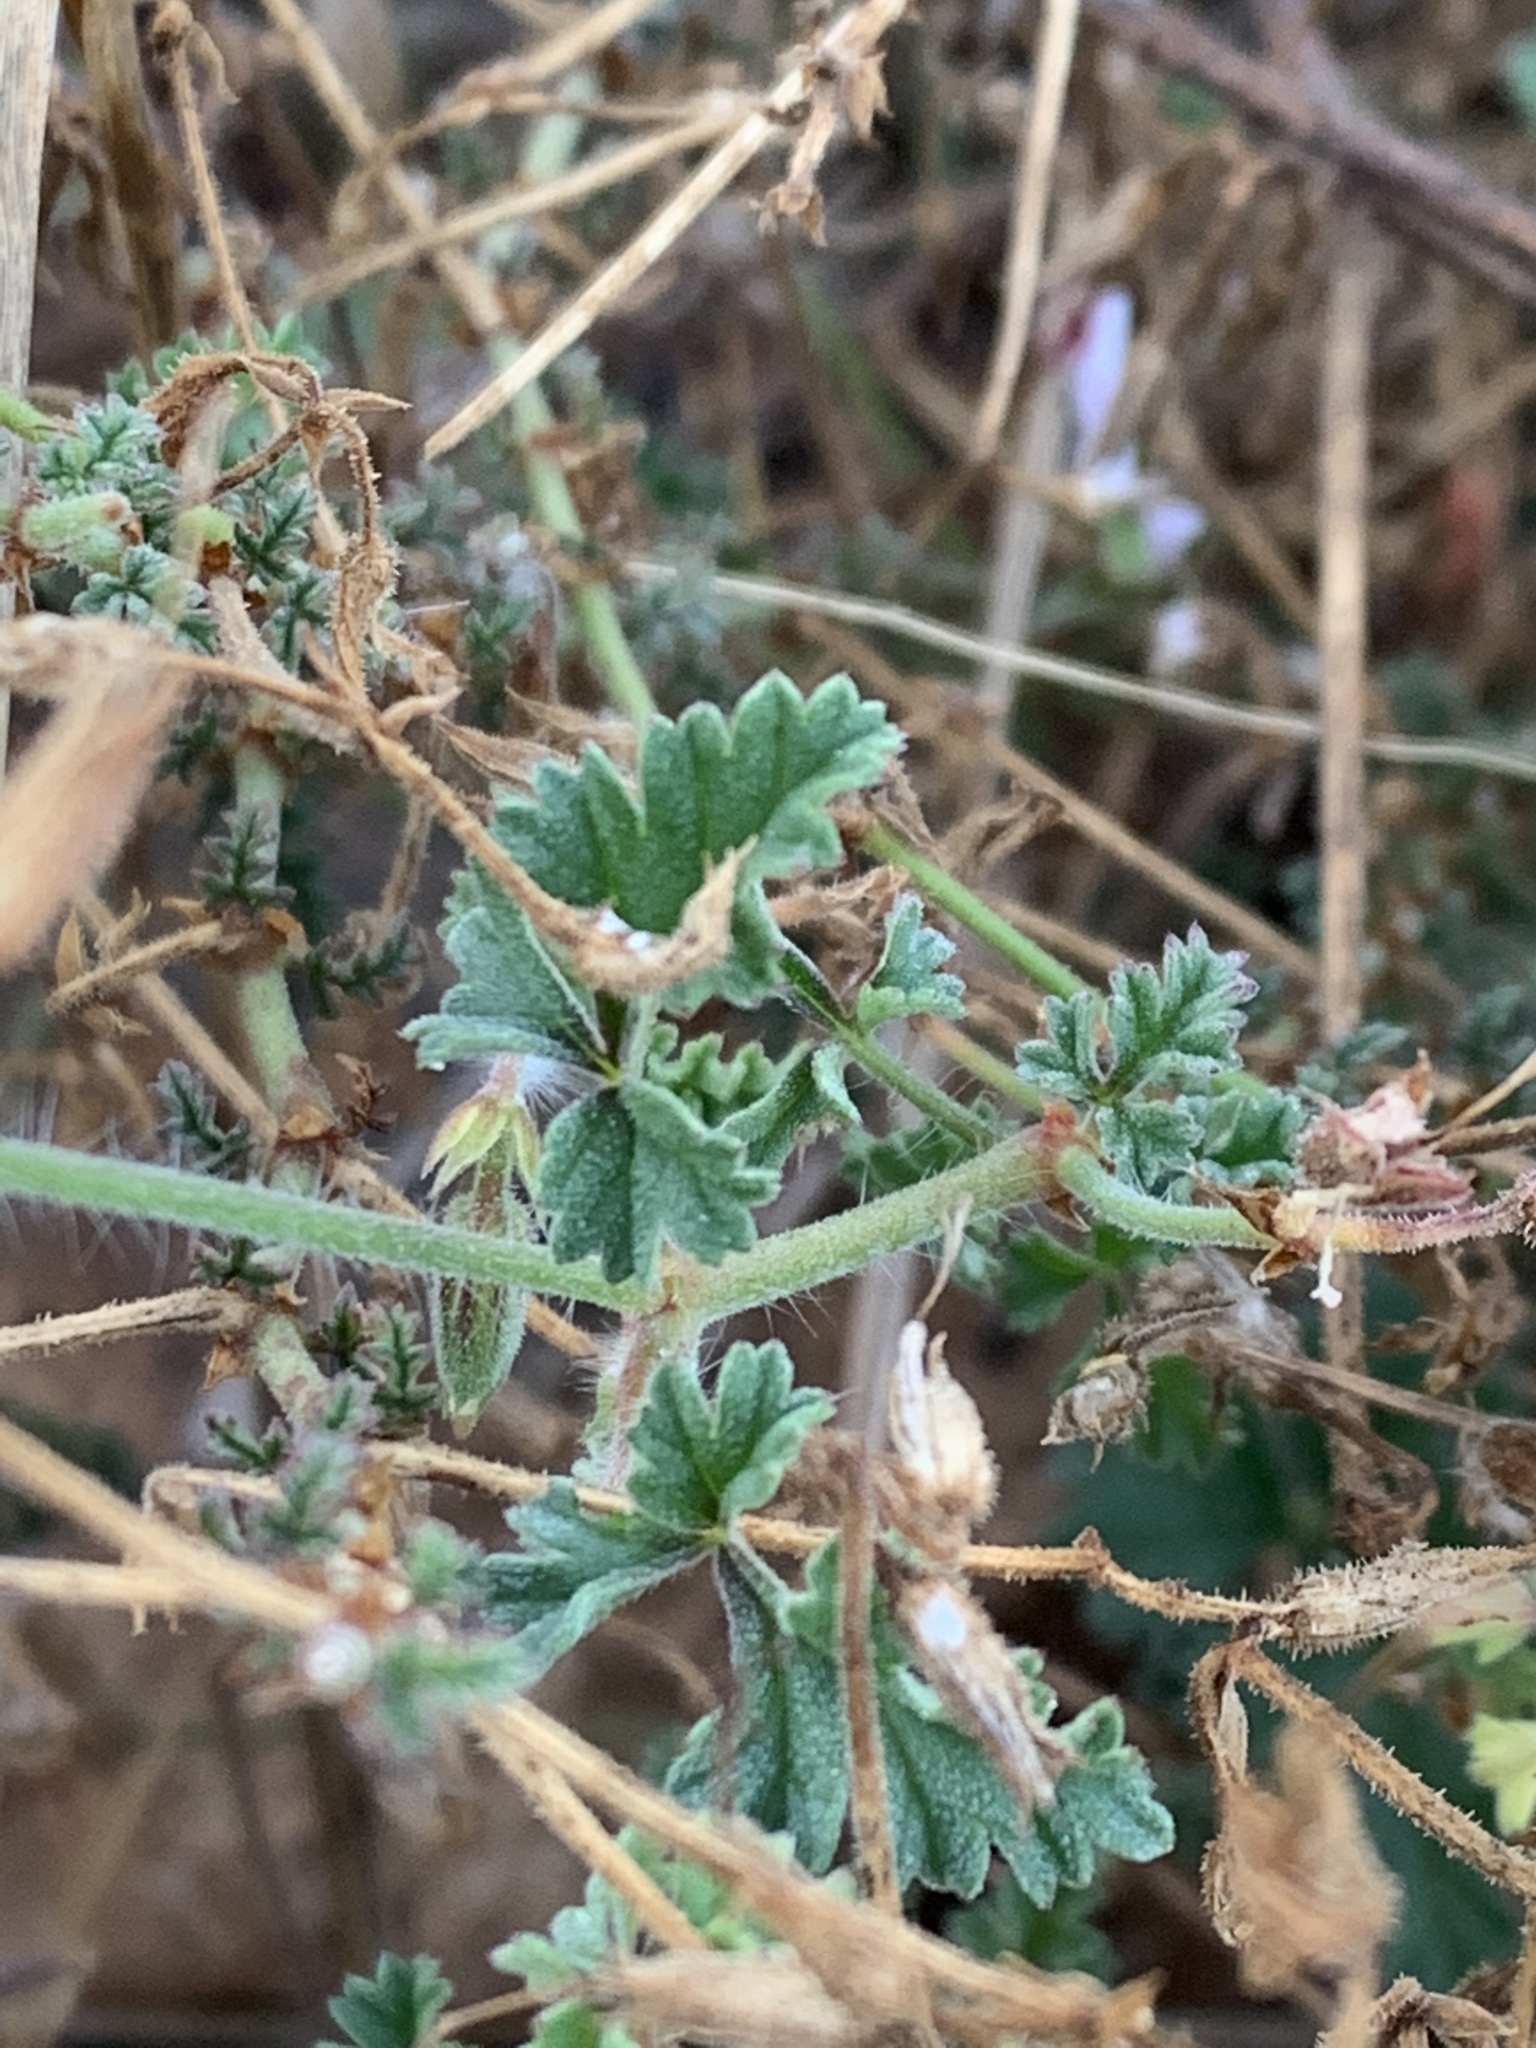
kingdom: Plantae
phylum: Tracheophyta
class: Magnoliopsida
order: Geraniales
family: Geraniaceae
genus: Pelargonium
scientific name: Pelargonium candicans
